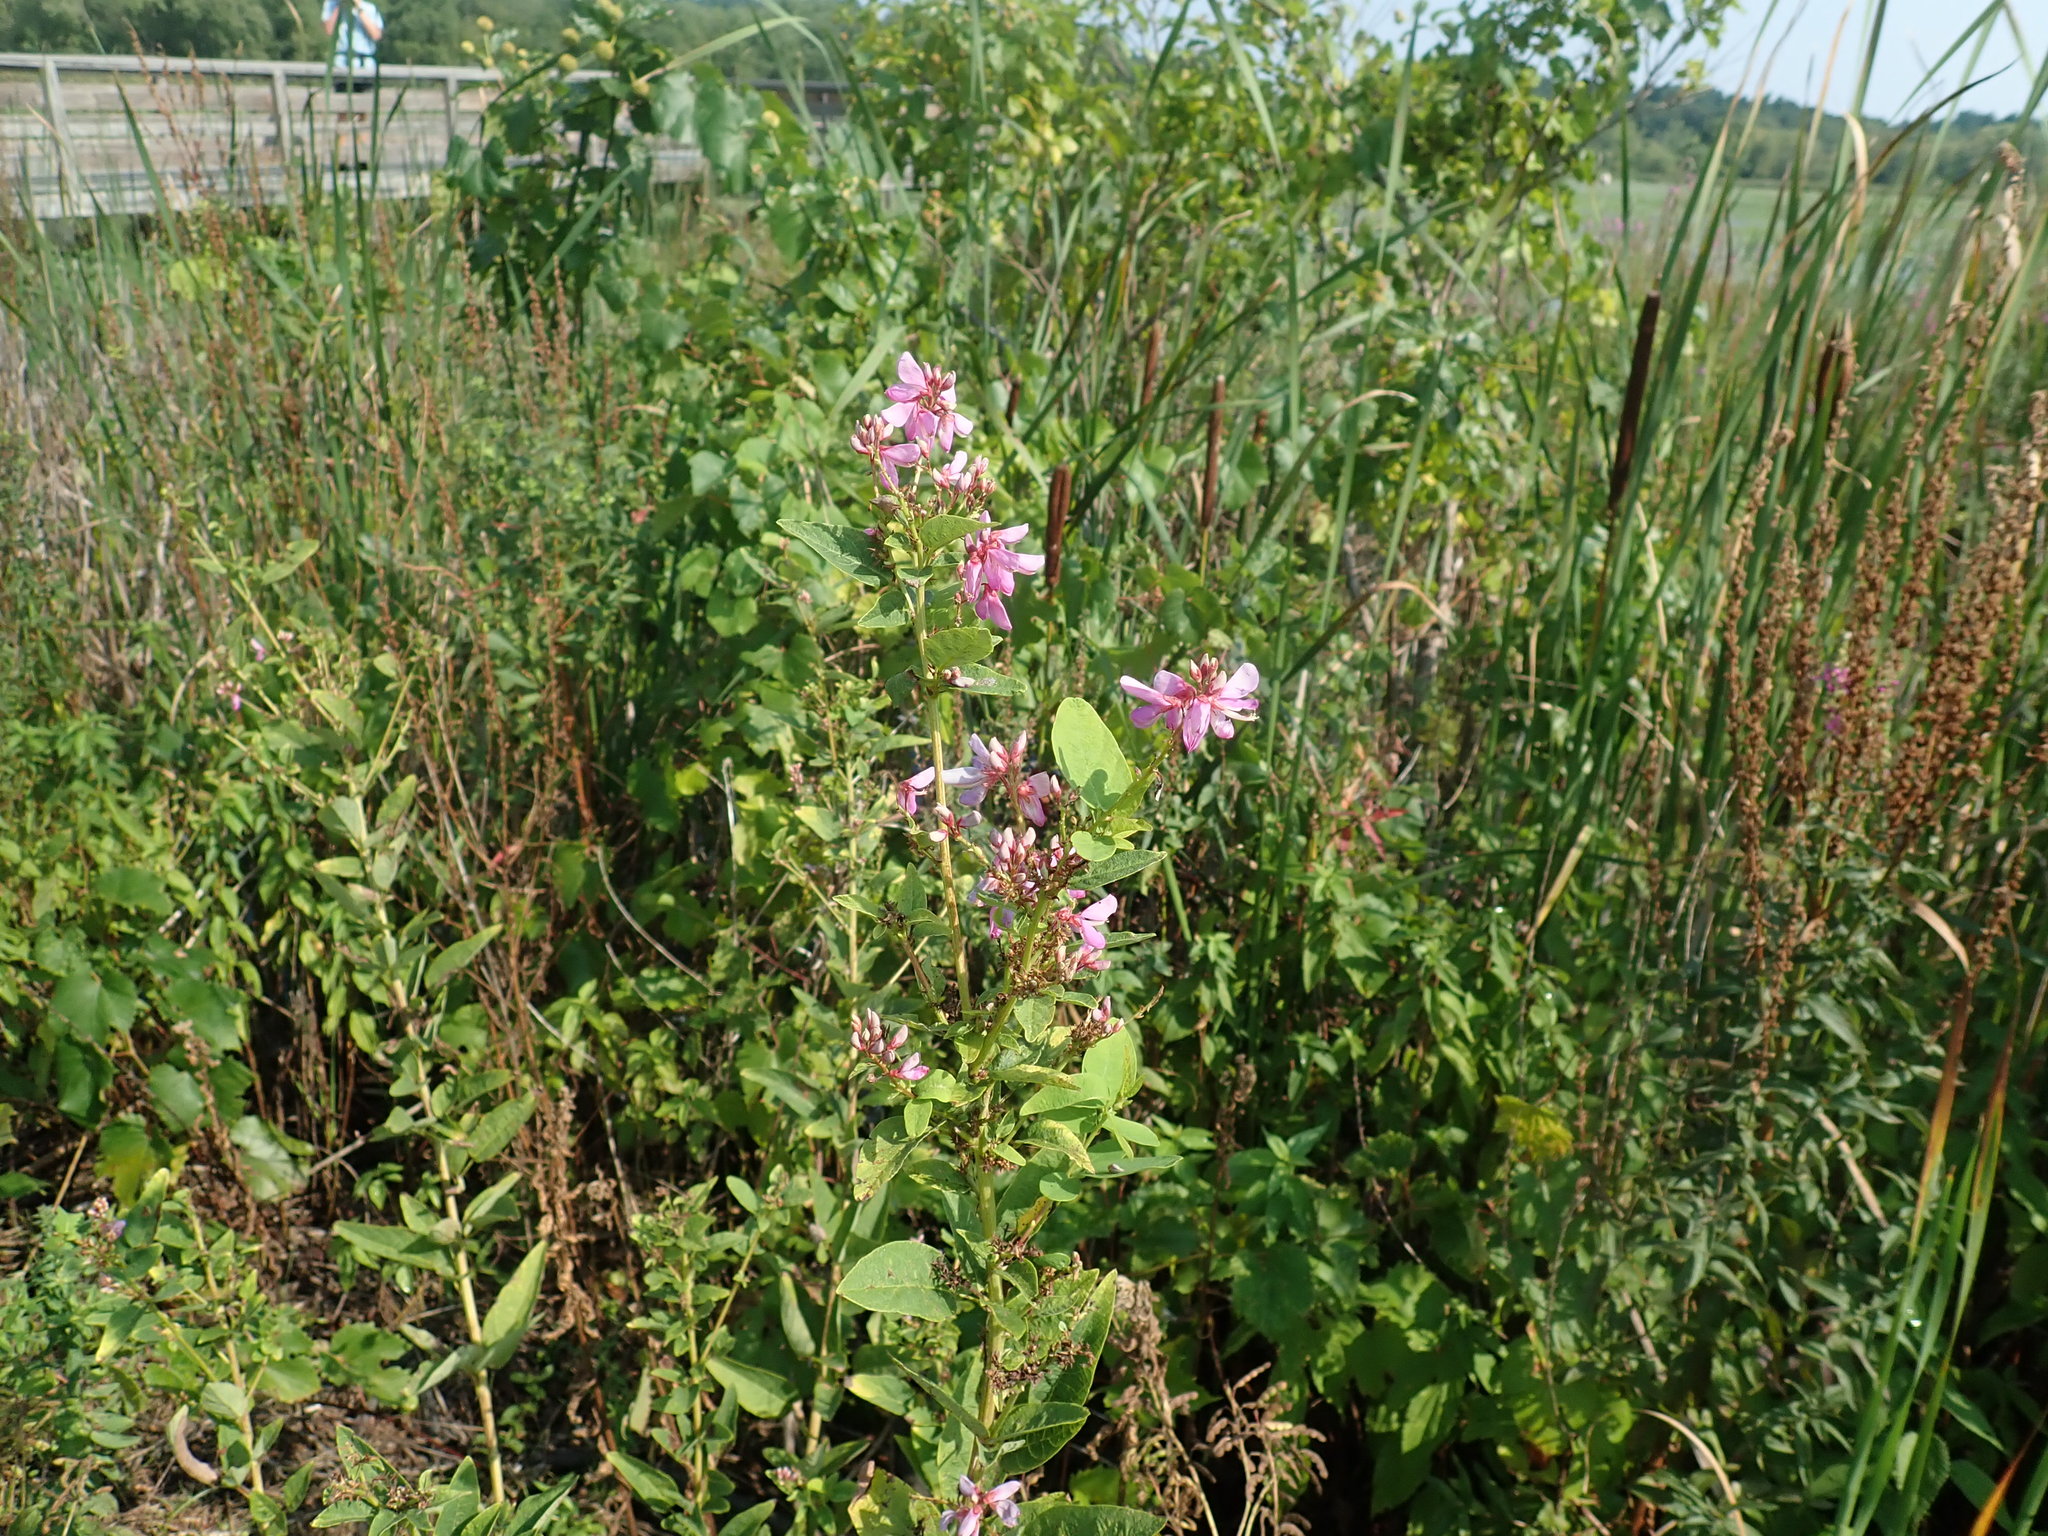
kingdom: Plantae
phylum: Tracheophyta
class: Magnoliopsida
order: Fabales
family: Fabaceae
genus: Desmodium
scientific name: Desmodium canadense
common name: Canada tick-trefoil
